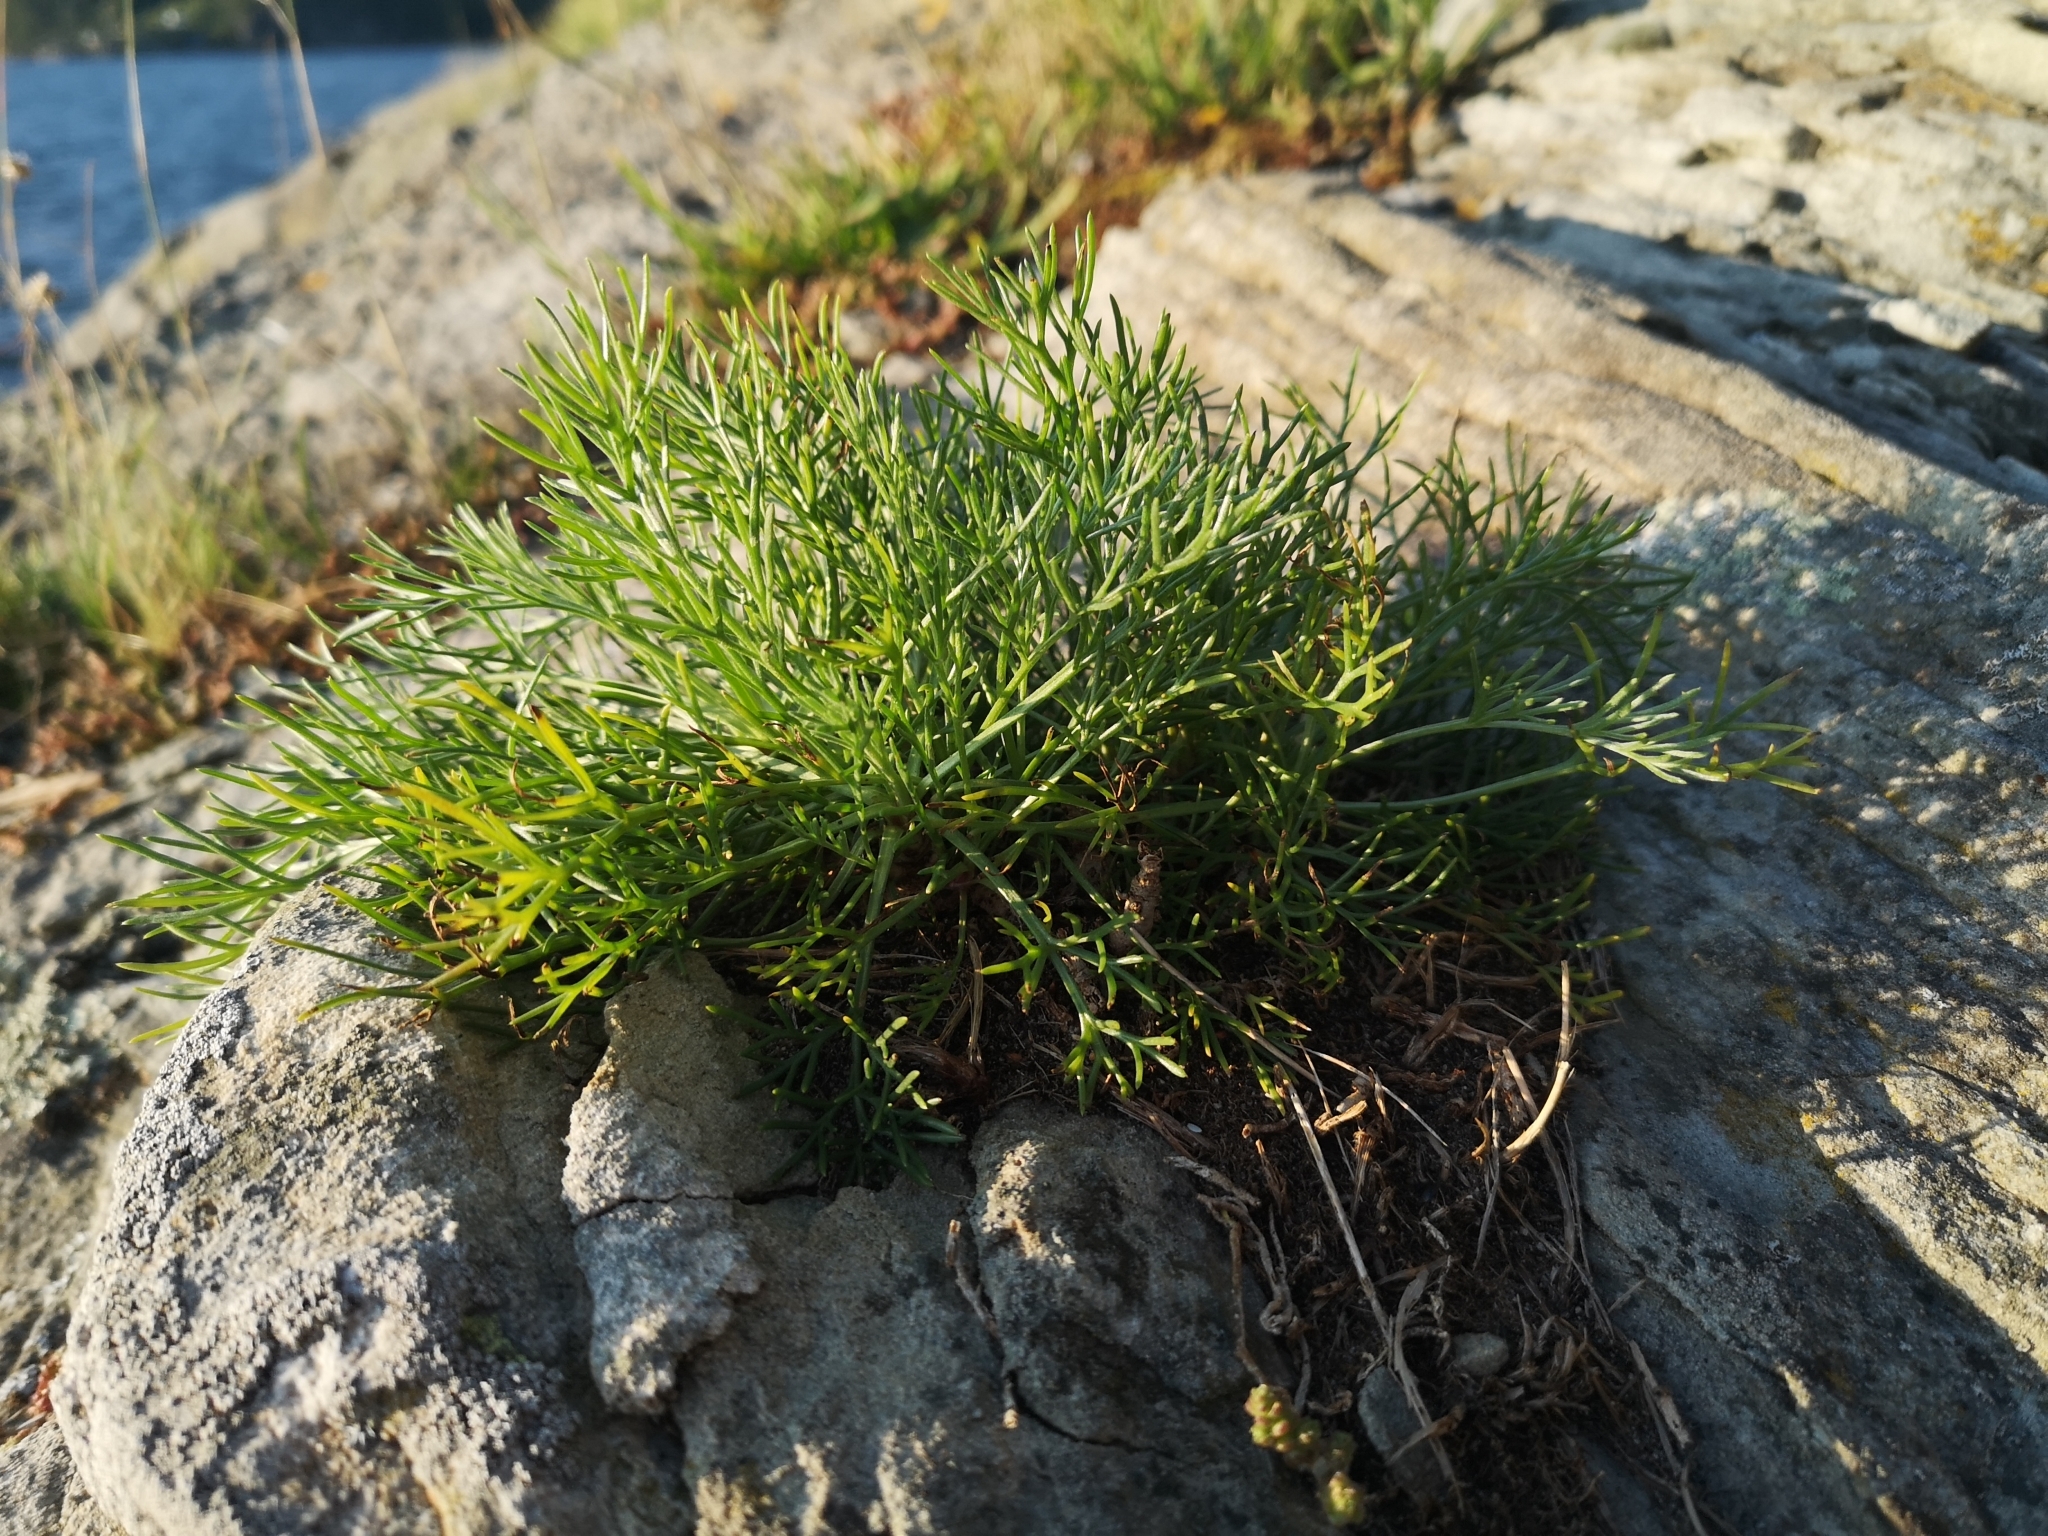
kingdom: Plantae
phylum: Tracheophyta
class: Magnoliopsida
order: Asterales
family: Asteraceae
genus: Artemisia
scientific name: Artemisia campestris
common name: Field wormwood
